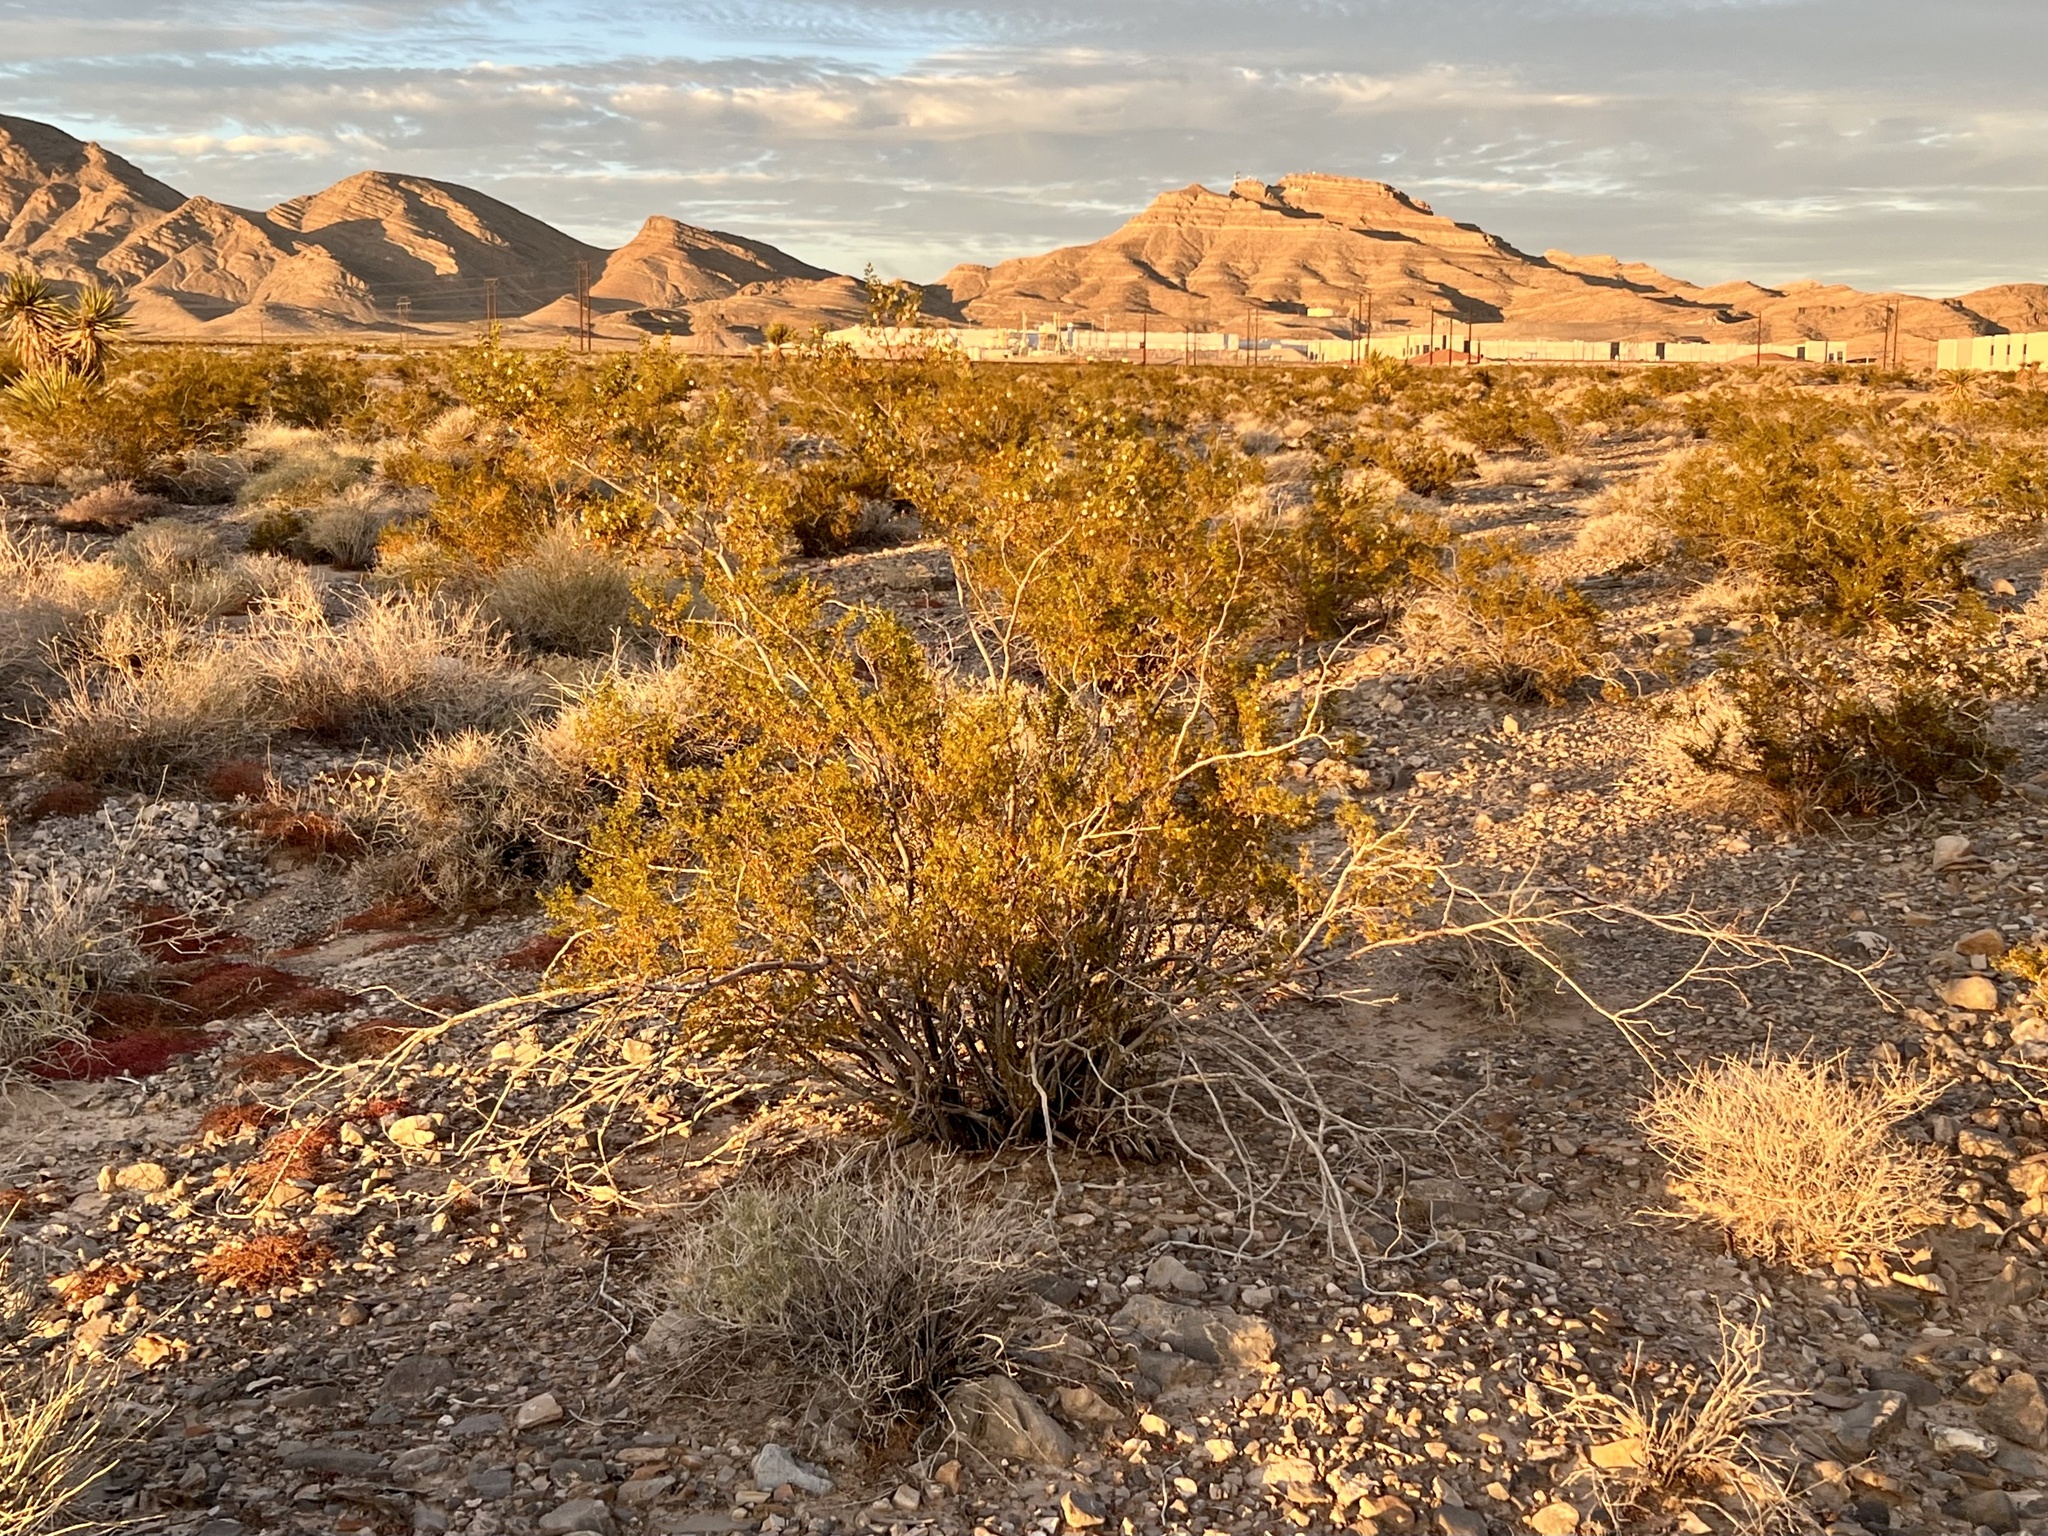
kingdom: Plantae
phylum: Tracheophyta
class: Magnoliopsida
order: Zygophyllales
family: Zygophyllaceae
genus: Larrea
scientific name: Larrea tridentata
